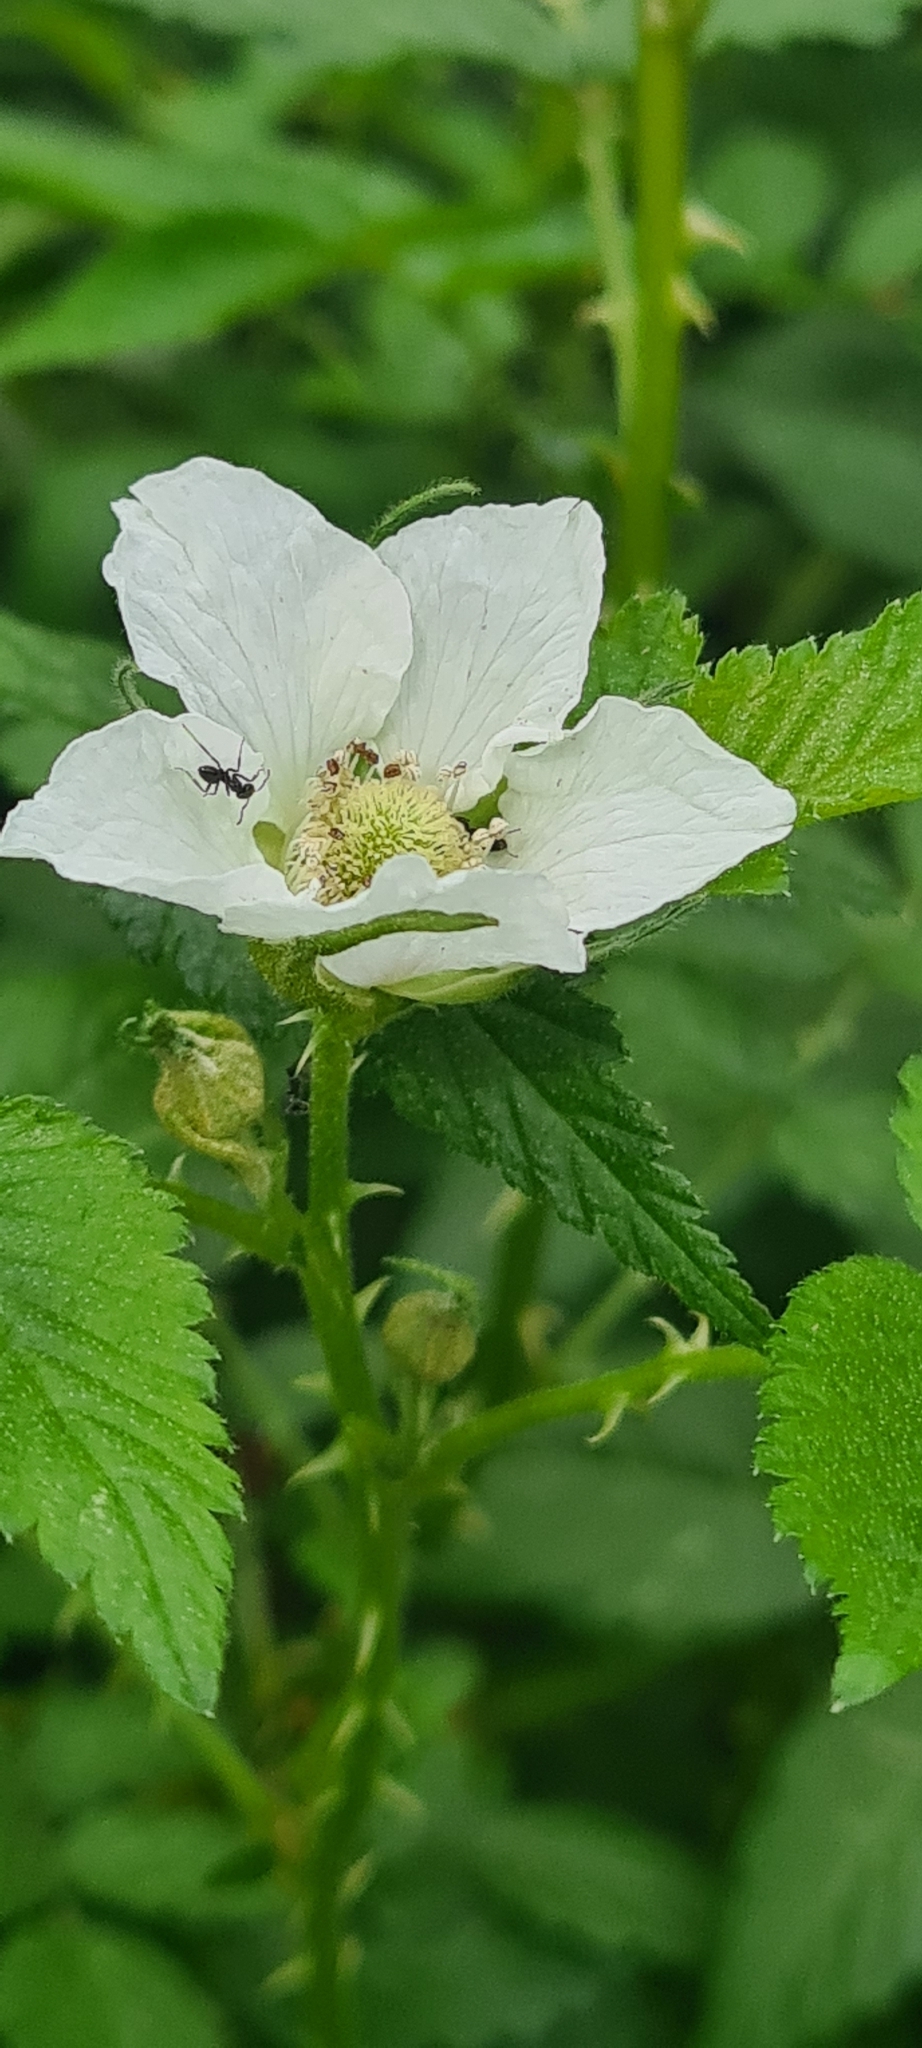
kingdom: Plantae
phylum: Tracheophyta
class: Magnoliopsida
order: Rosales
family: Rosaceae
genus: Rubus
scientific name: Rubus rosifolius
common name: Roseleaf raspberry
